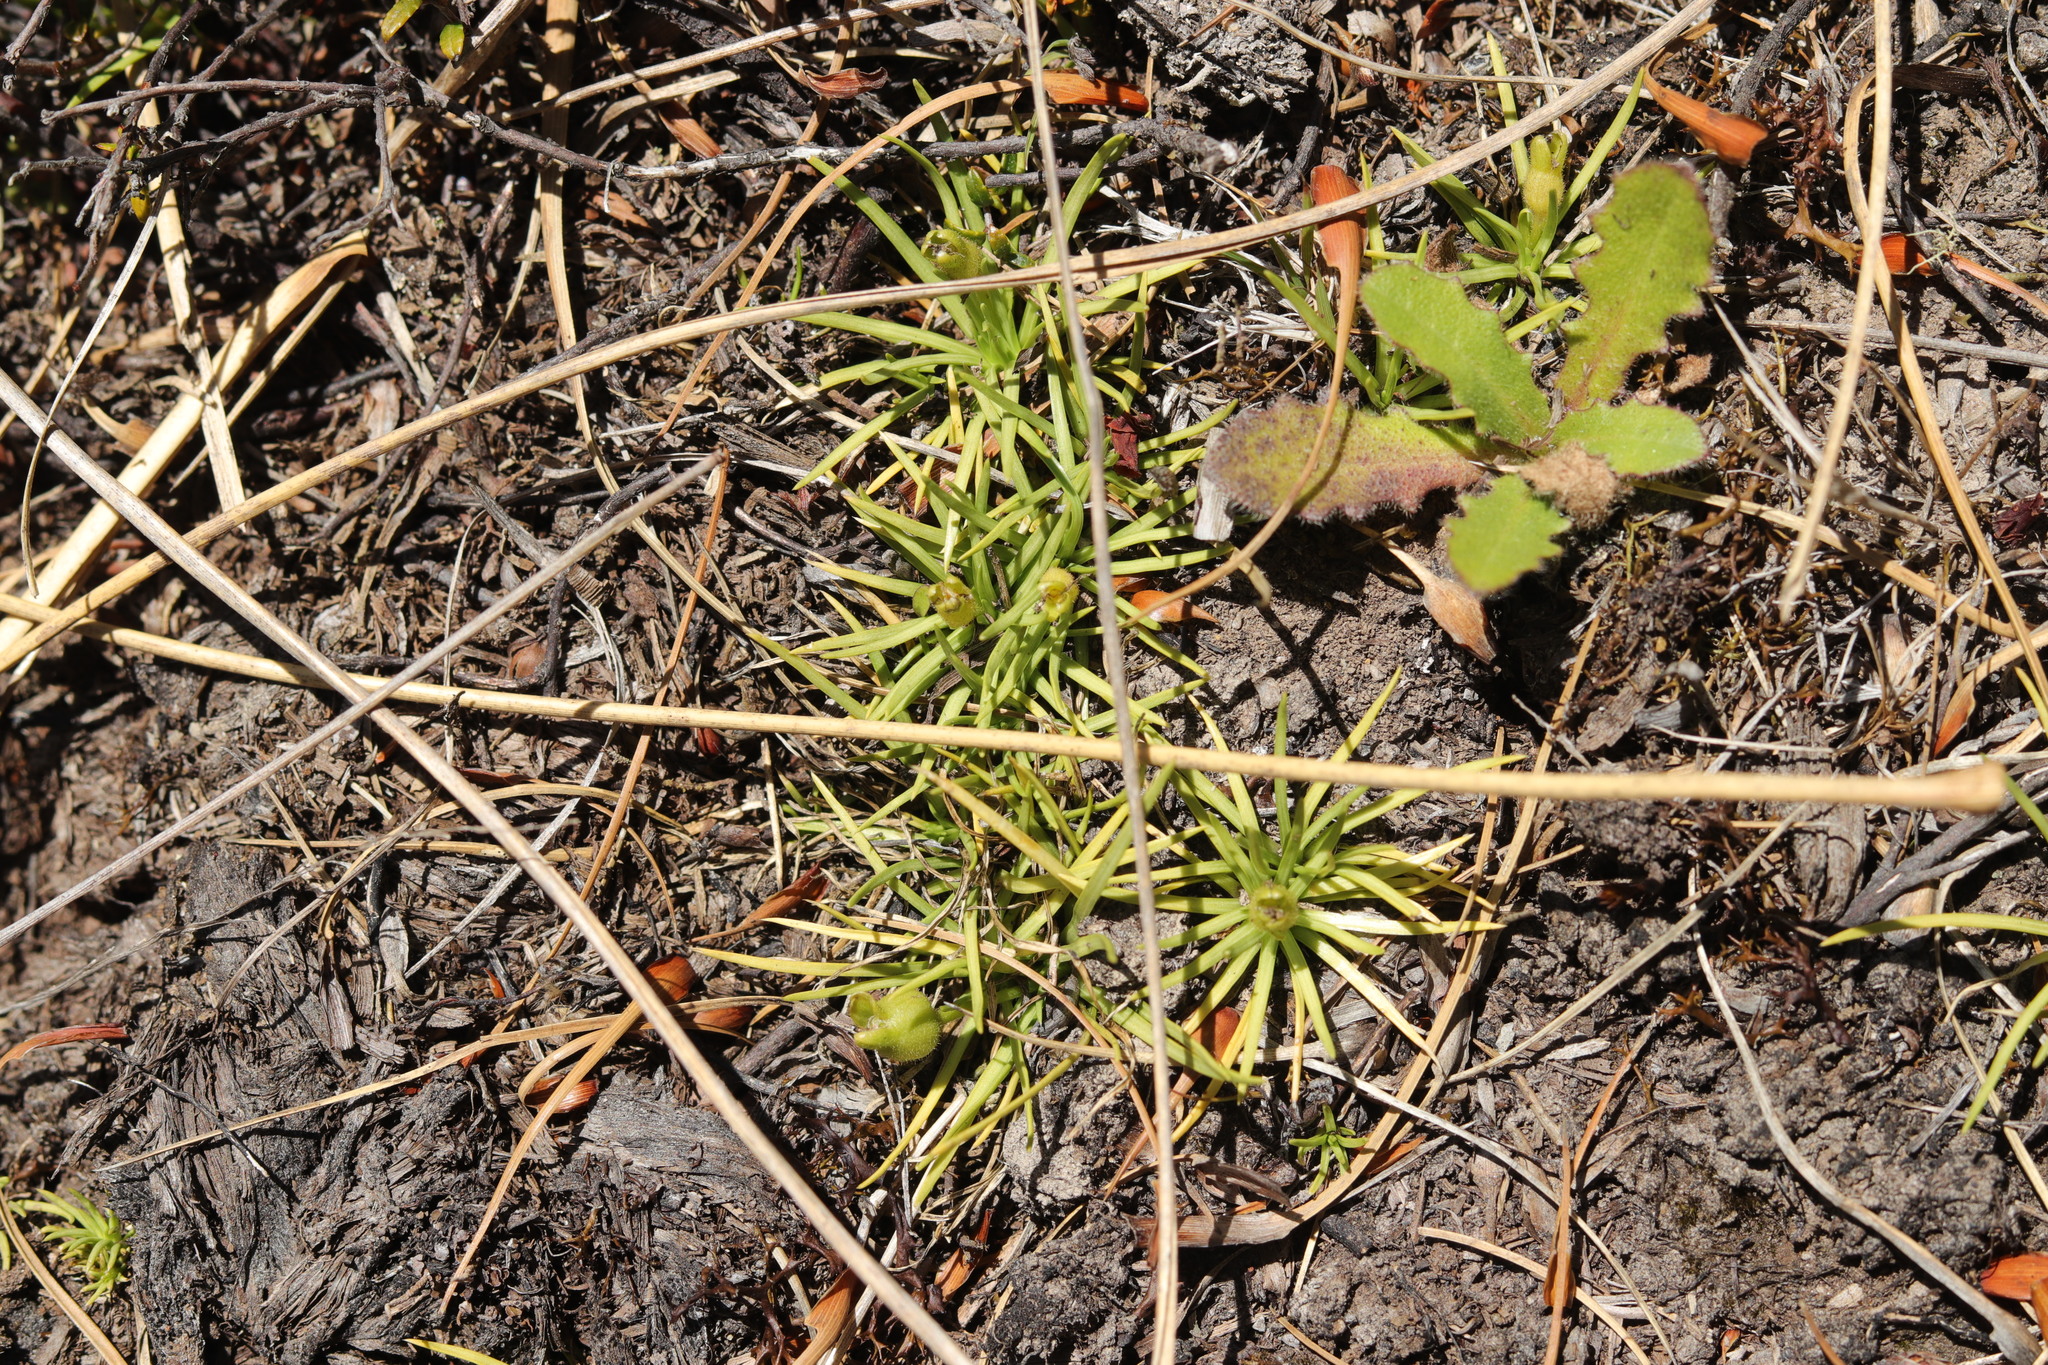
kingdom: Plantae
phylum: Tracheophyta
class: Magnoliopsida
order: Asterales
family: Stylidiaceae
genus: Oreostylidium
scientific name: Oreostylidium subulatum
